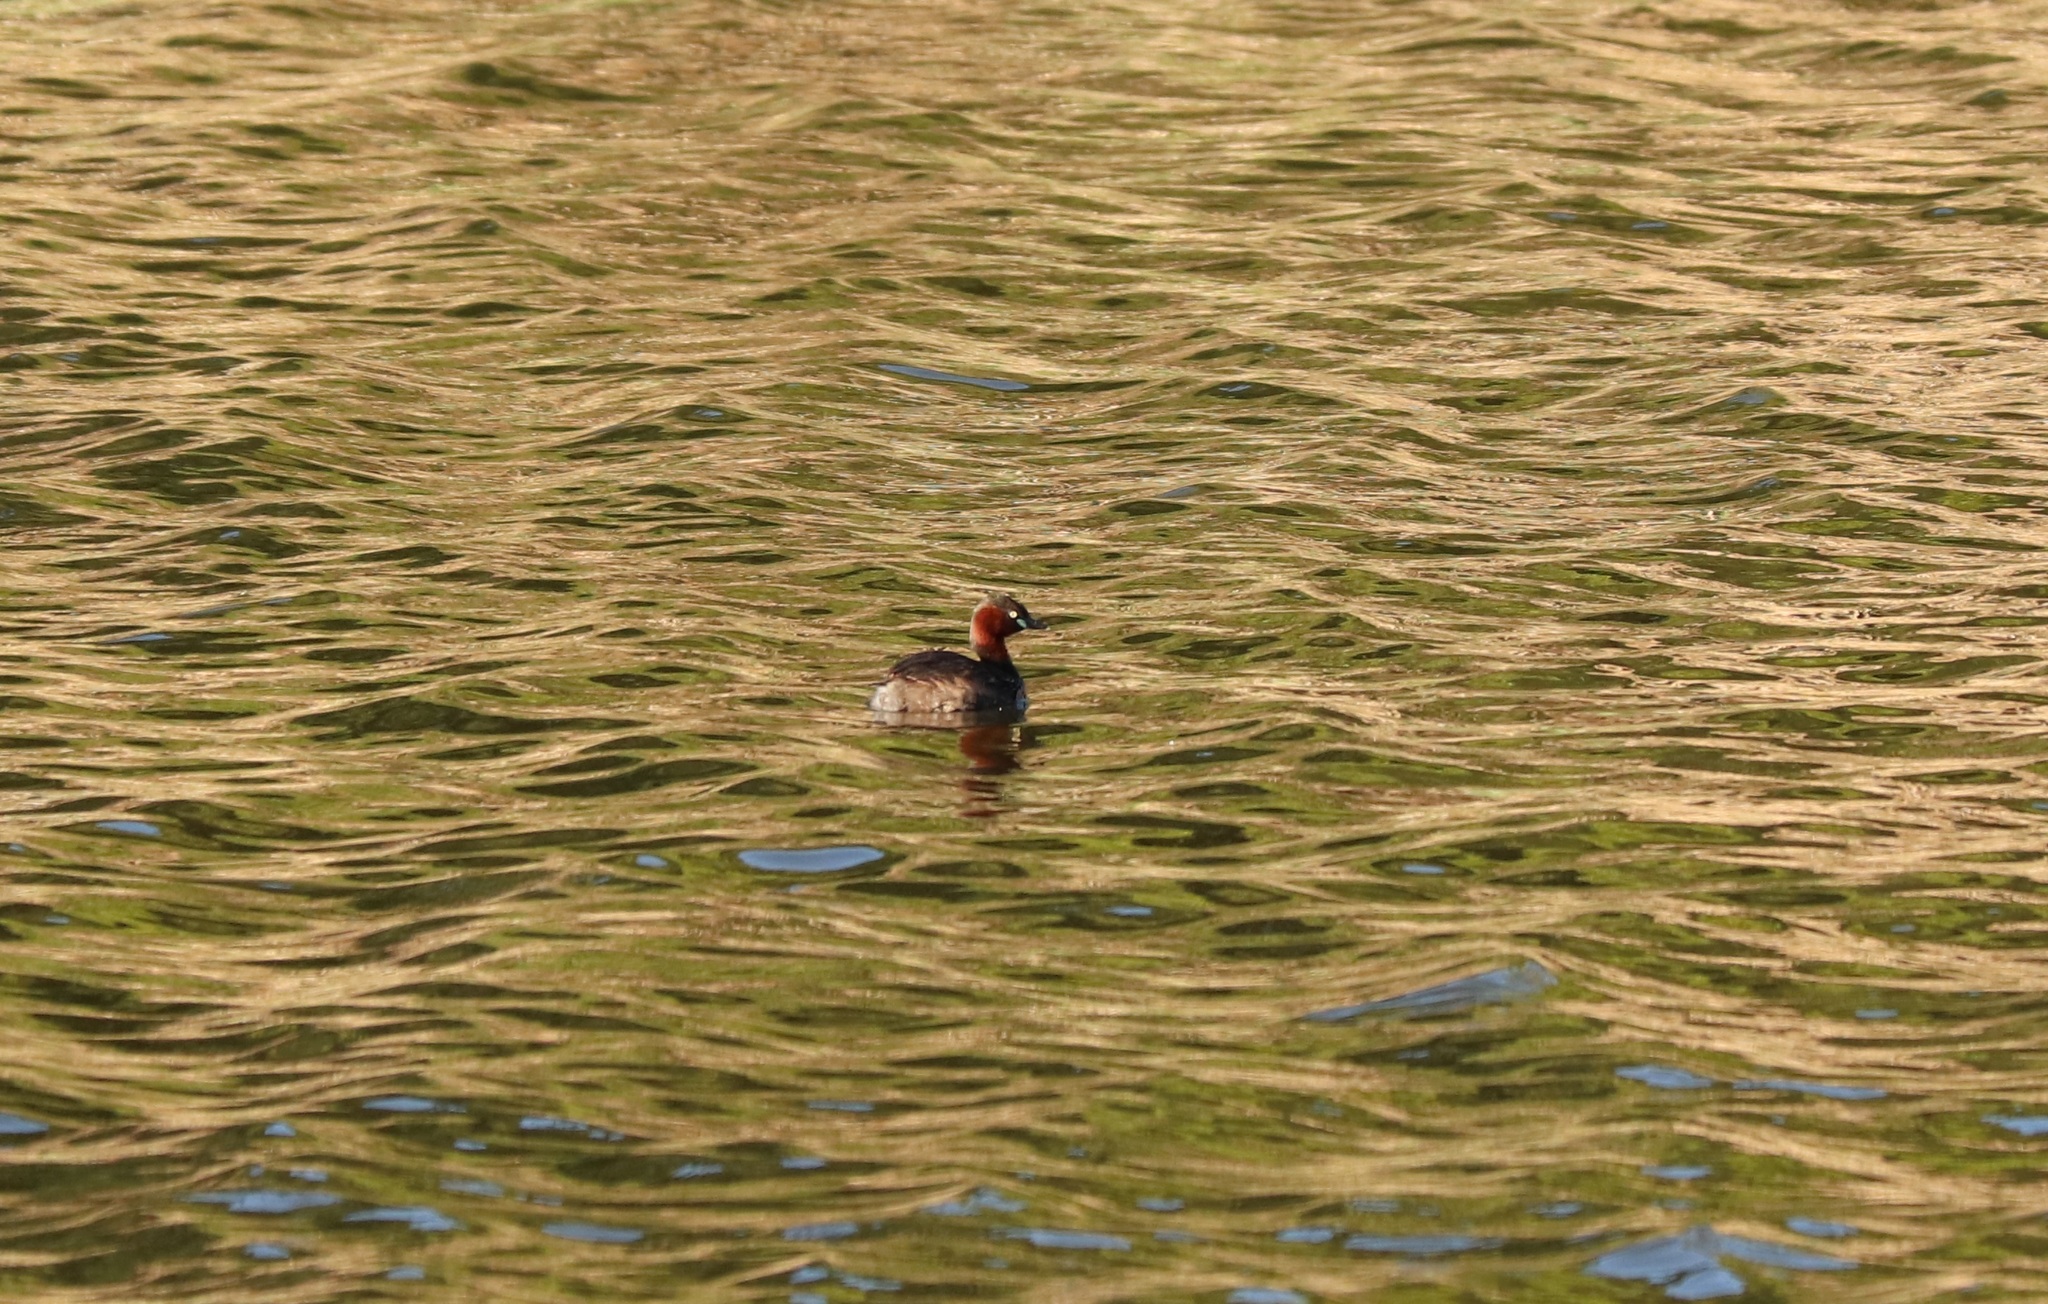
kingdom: Animalia
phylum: Chordata
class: Aves
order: Podicipediformes
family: Podicipedidae
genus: Tachybaptus
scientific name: Tachybaptus ruficollis
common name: Little grebe
